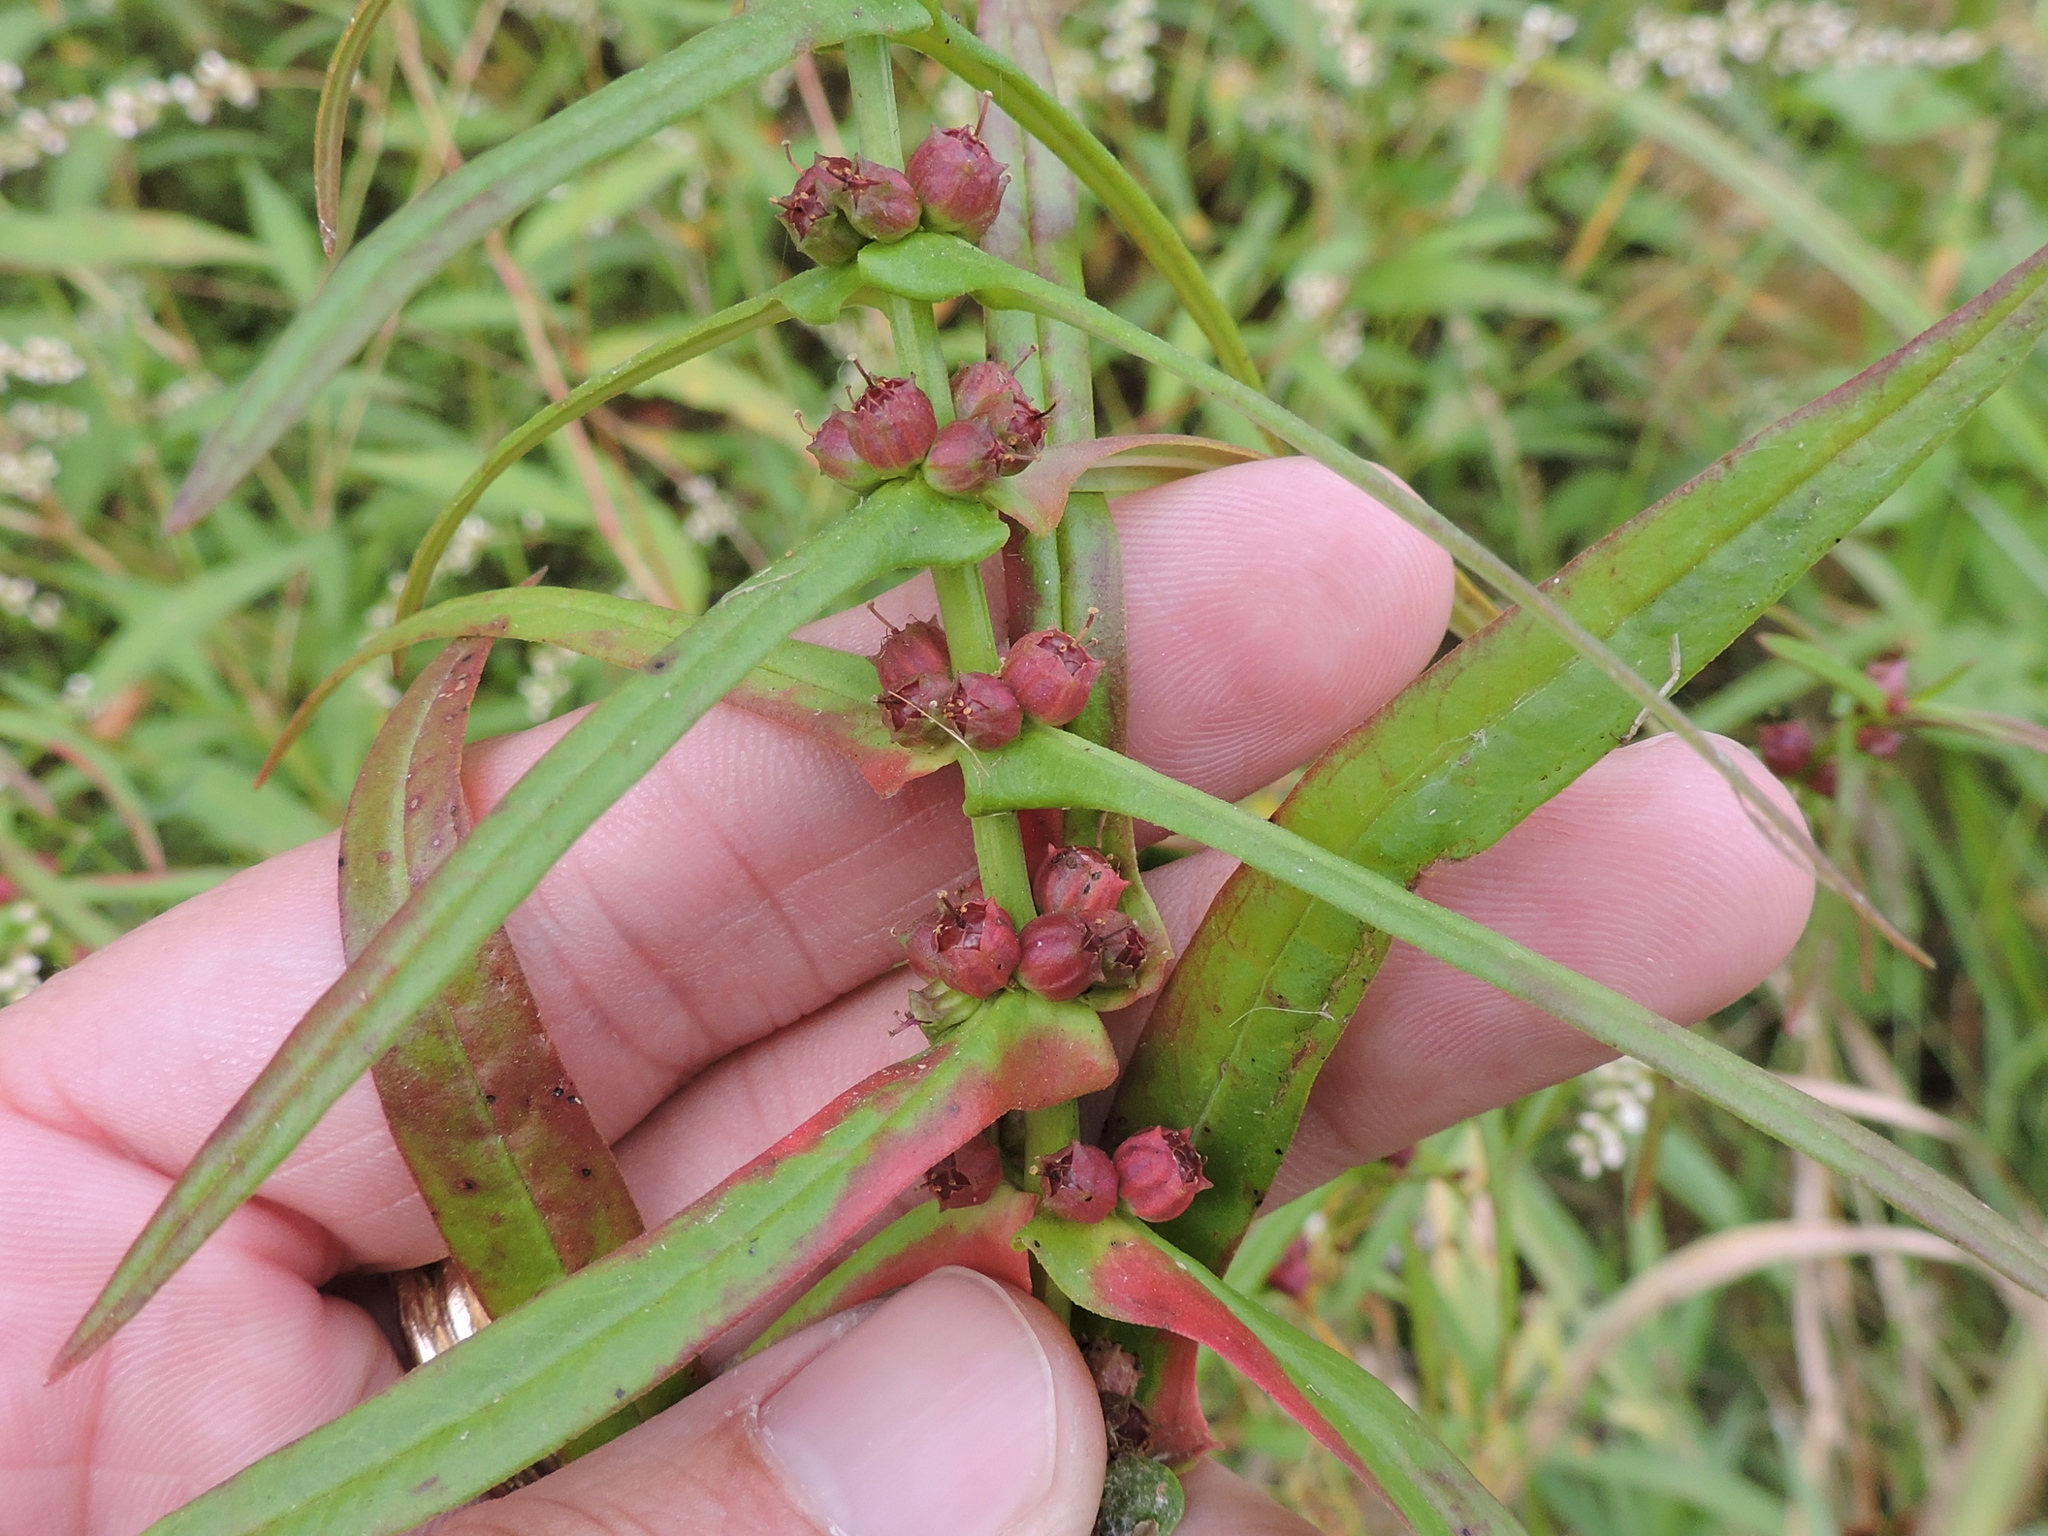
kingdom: Plantae
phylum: Tracheophyta
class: Magnoliopsida
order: Myrtales
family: Lythraceae
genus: Ammannia
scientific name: Ammannia coccinea
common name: Valley redstem
